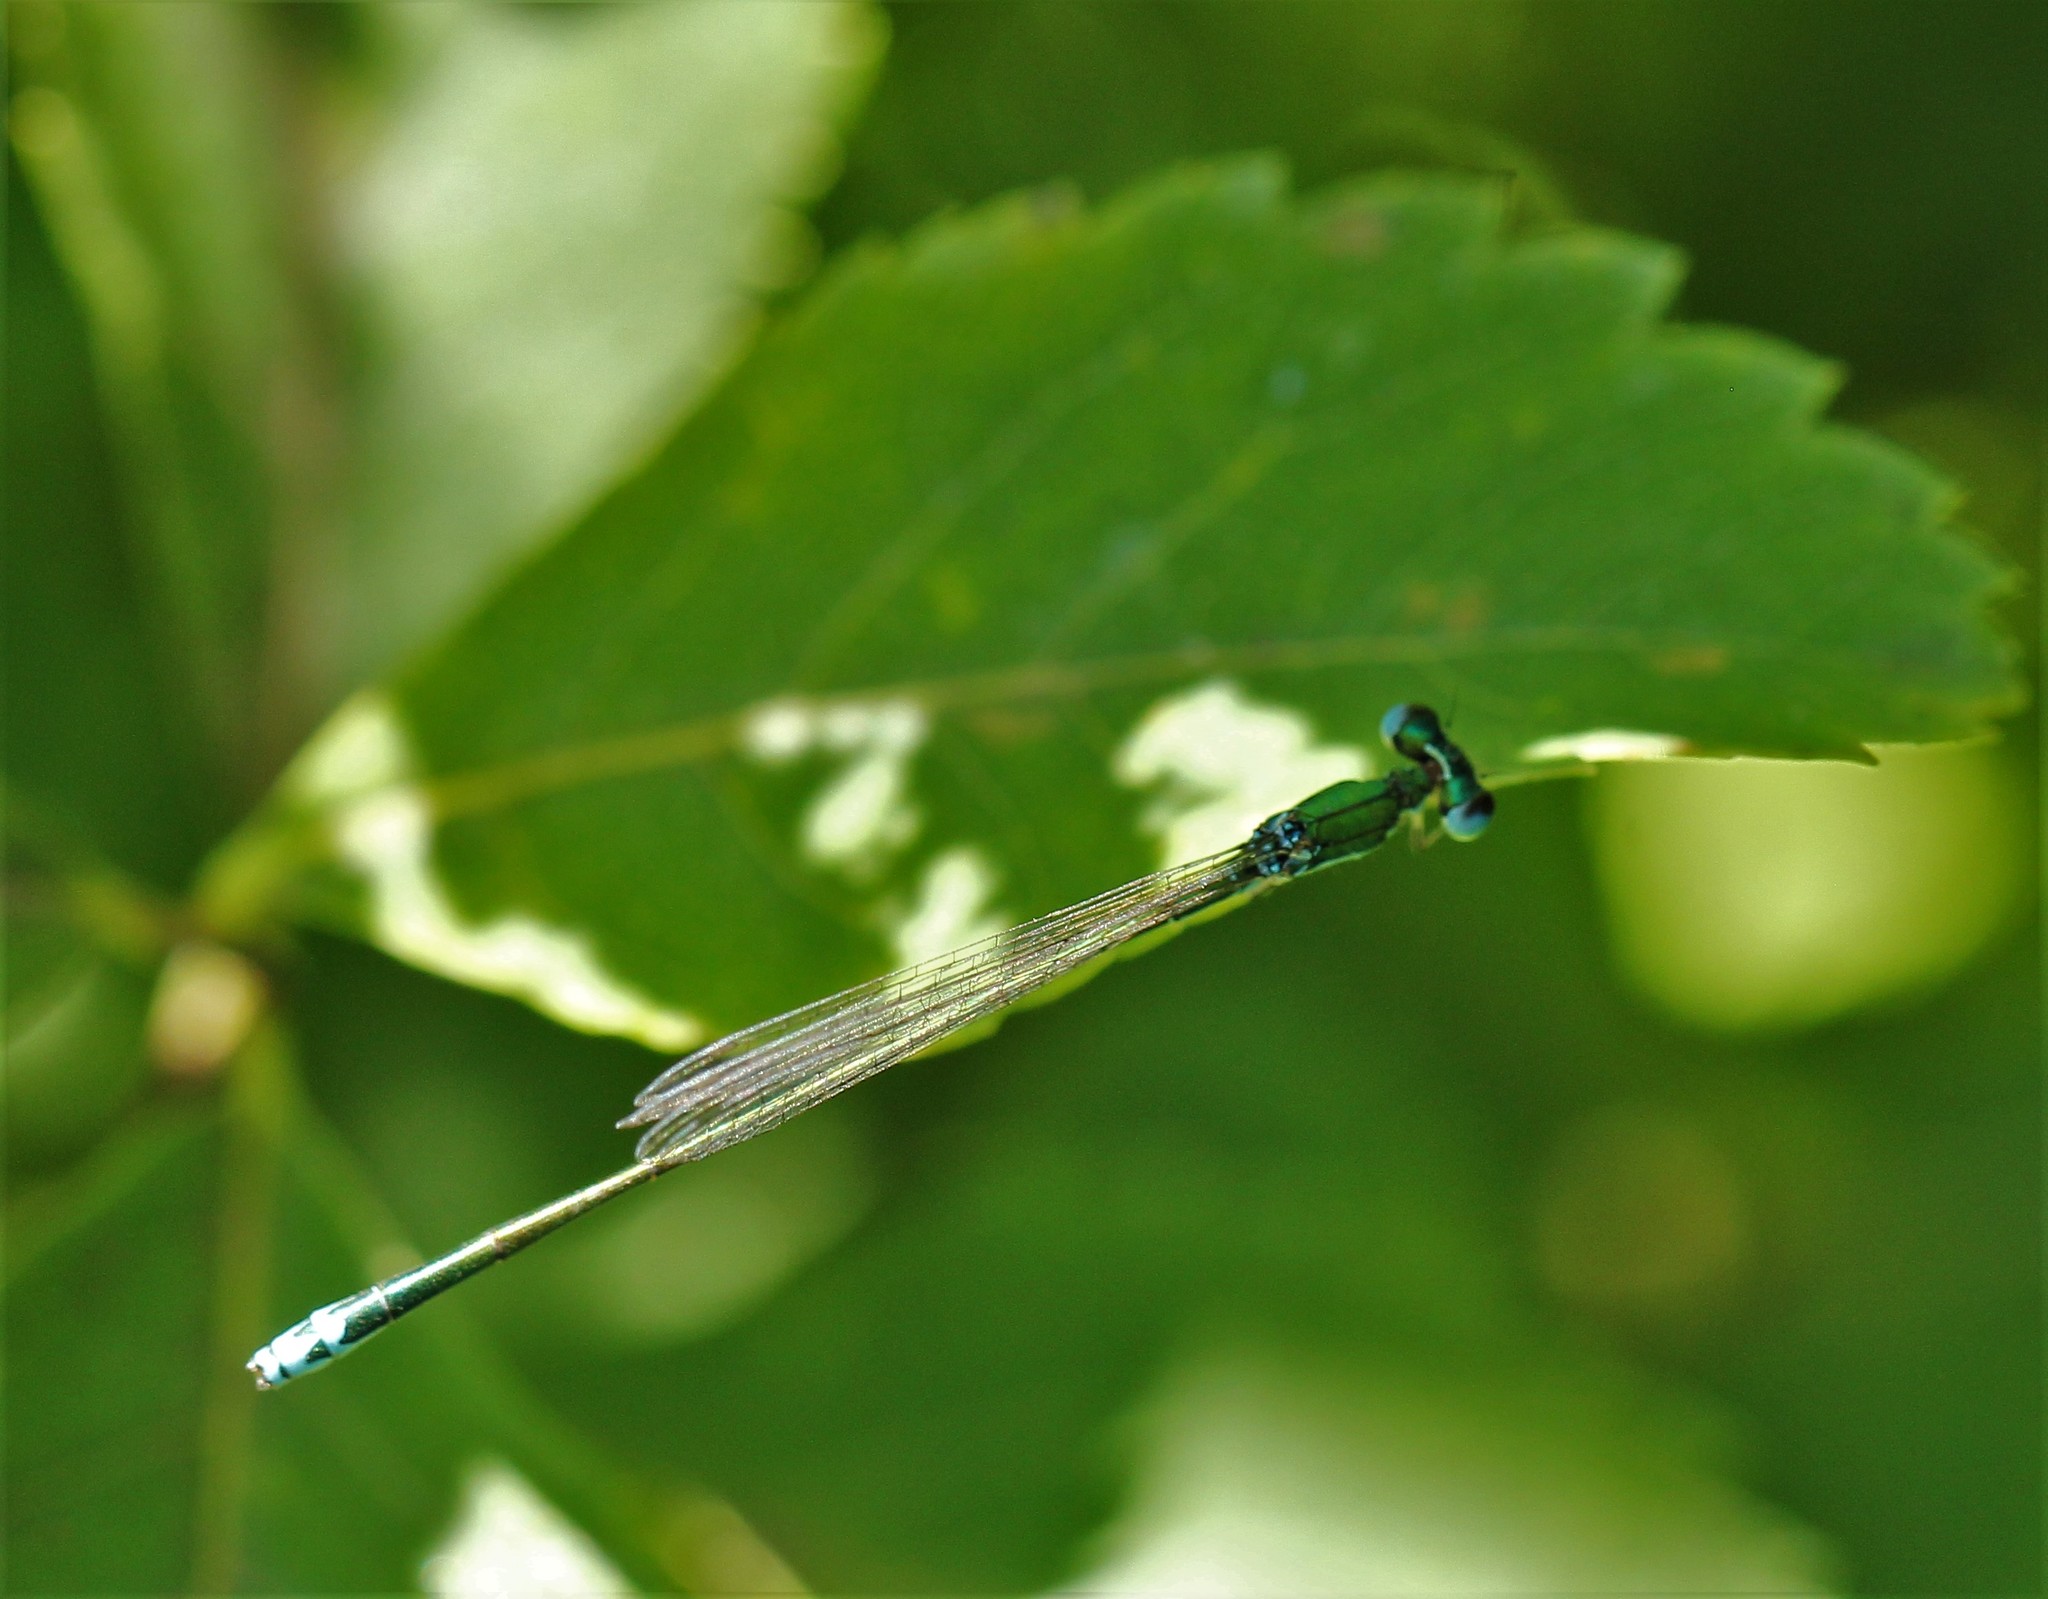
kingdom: Animalia
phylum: Arthropoda
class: Insecta
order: Odonata
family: Coenagrionidae
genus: Nehalennia
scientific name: Nehalennia irene
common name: Sedge sprite
